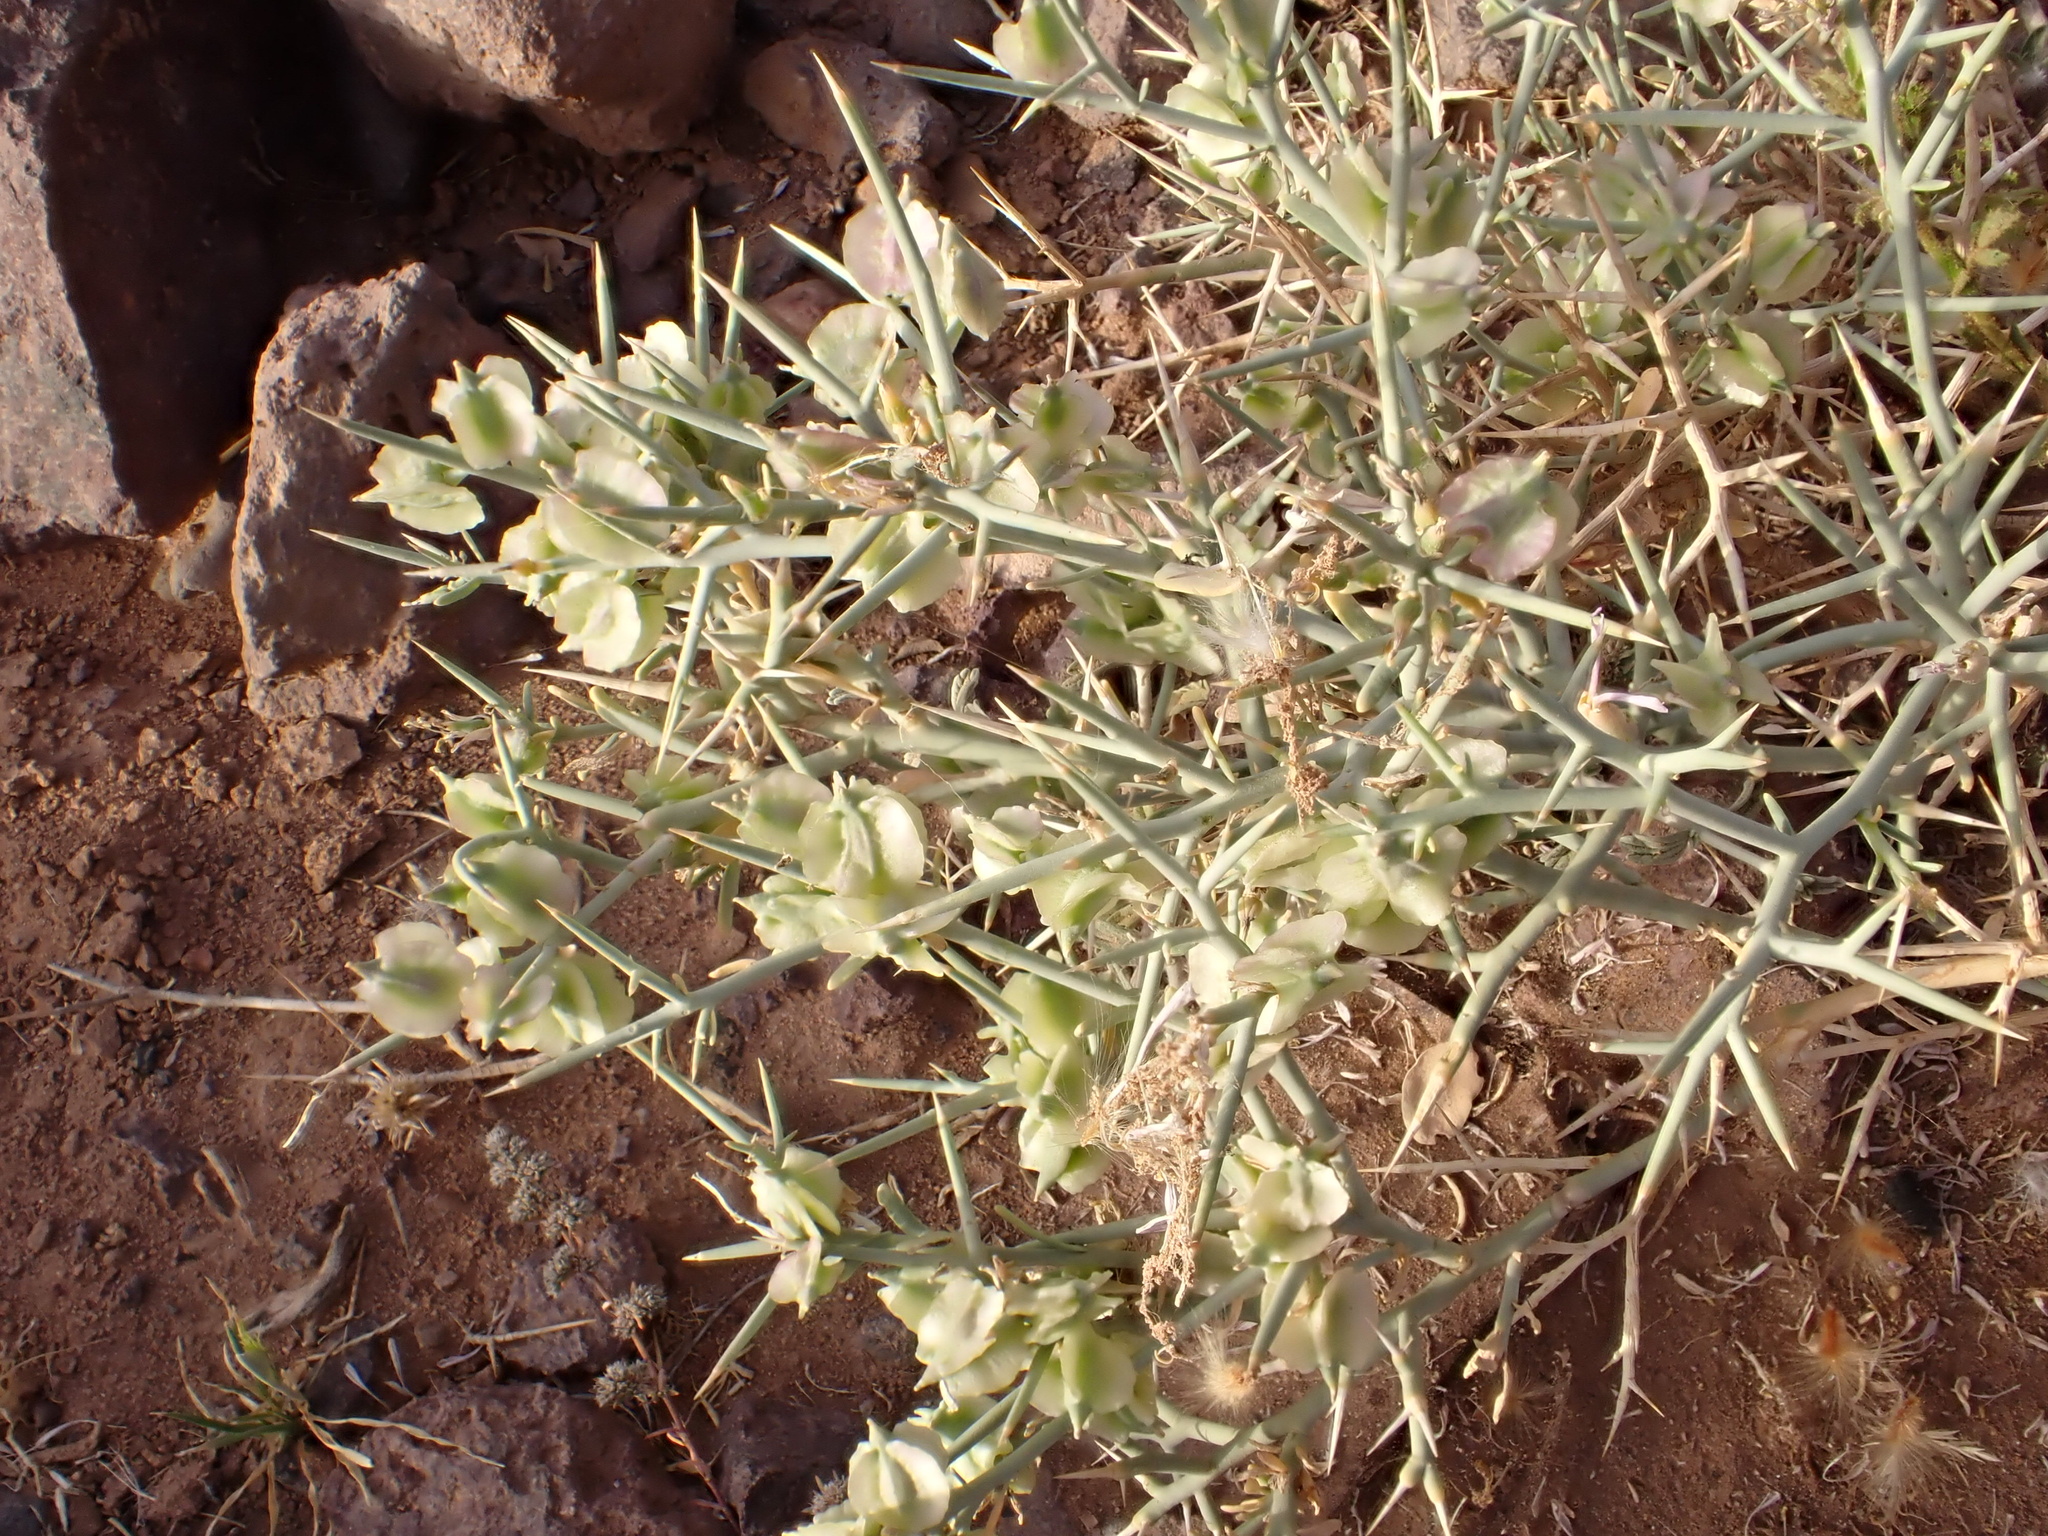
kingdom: Plantae
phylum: Tracheophyta
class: Magnoliopsida
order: Brassicales
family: Brassicaceae
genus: Zilla
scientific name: Zilla macroptera
